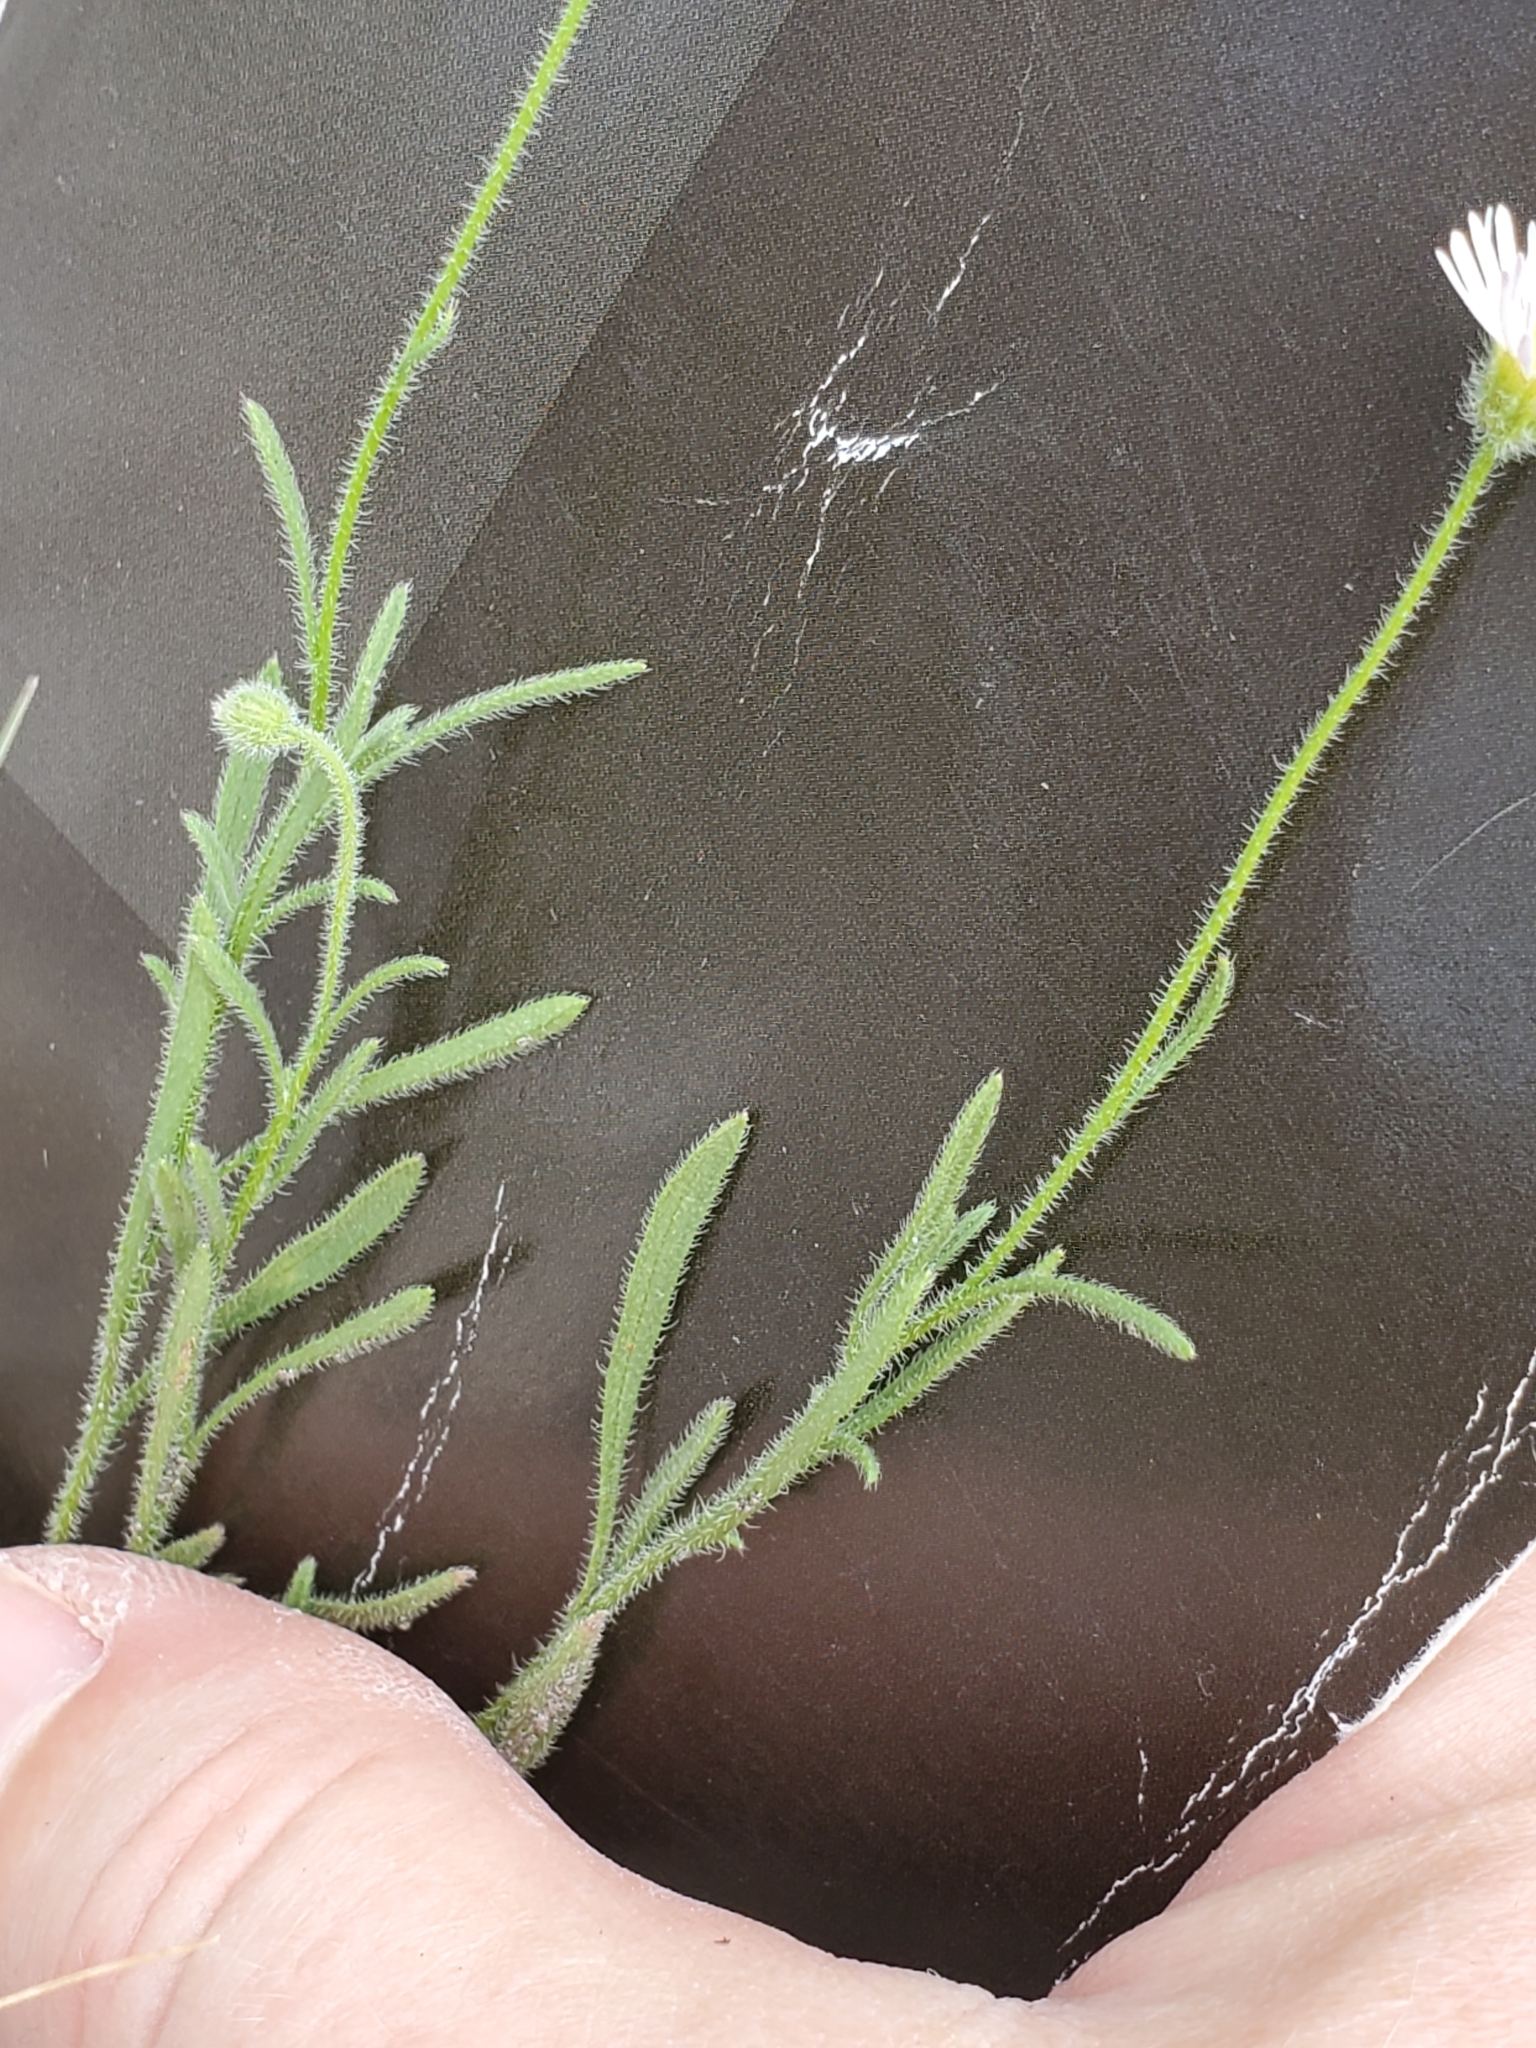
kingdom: Plantae
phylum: Tracheophyta
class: Magnoliopsida
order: Asterales
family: Asteraceae
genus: Erigeron
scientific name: Erigeron modestus
